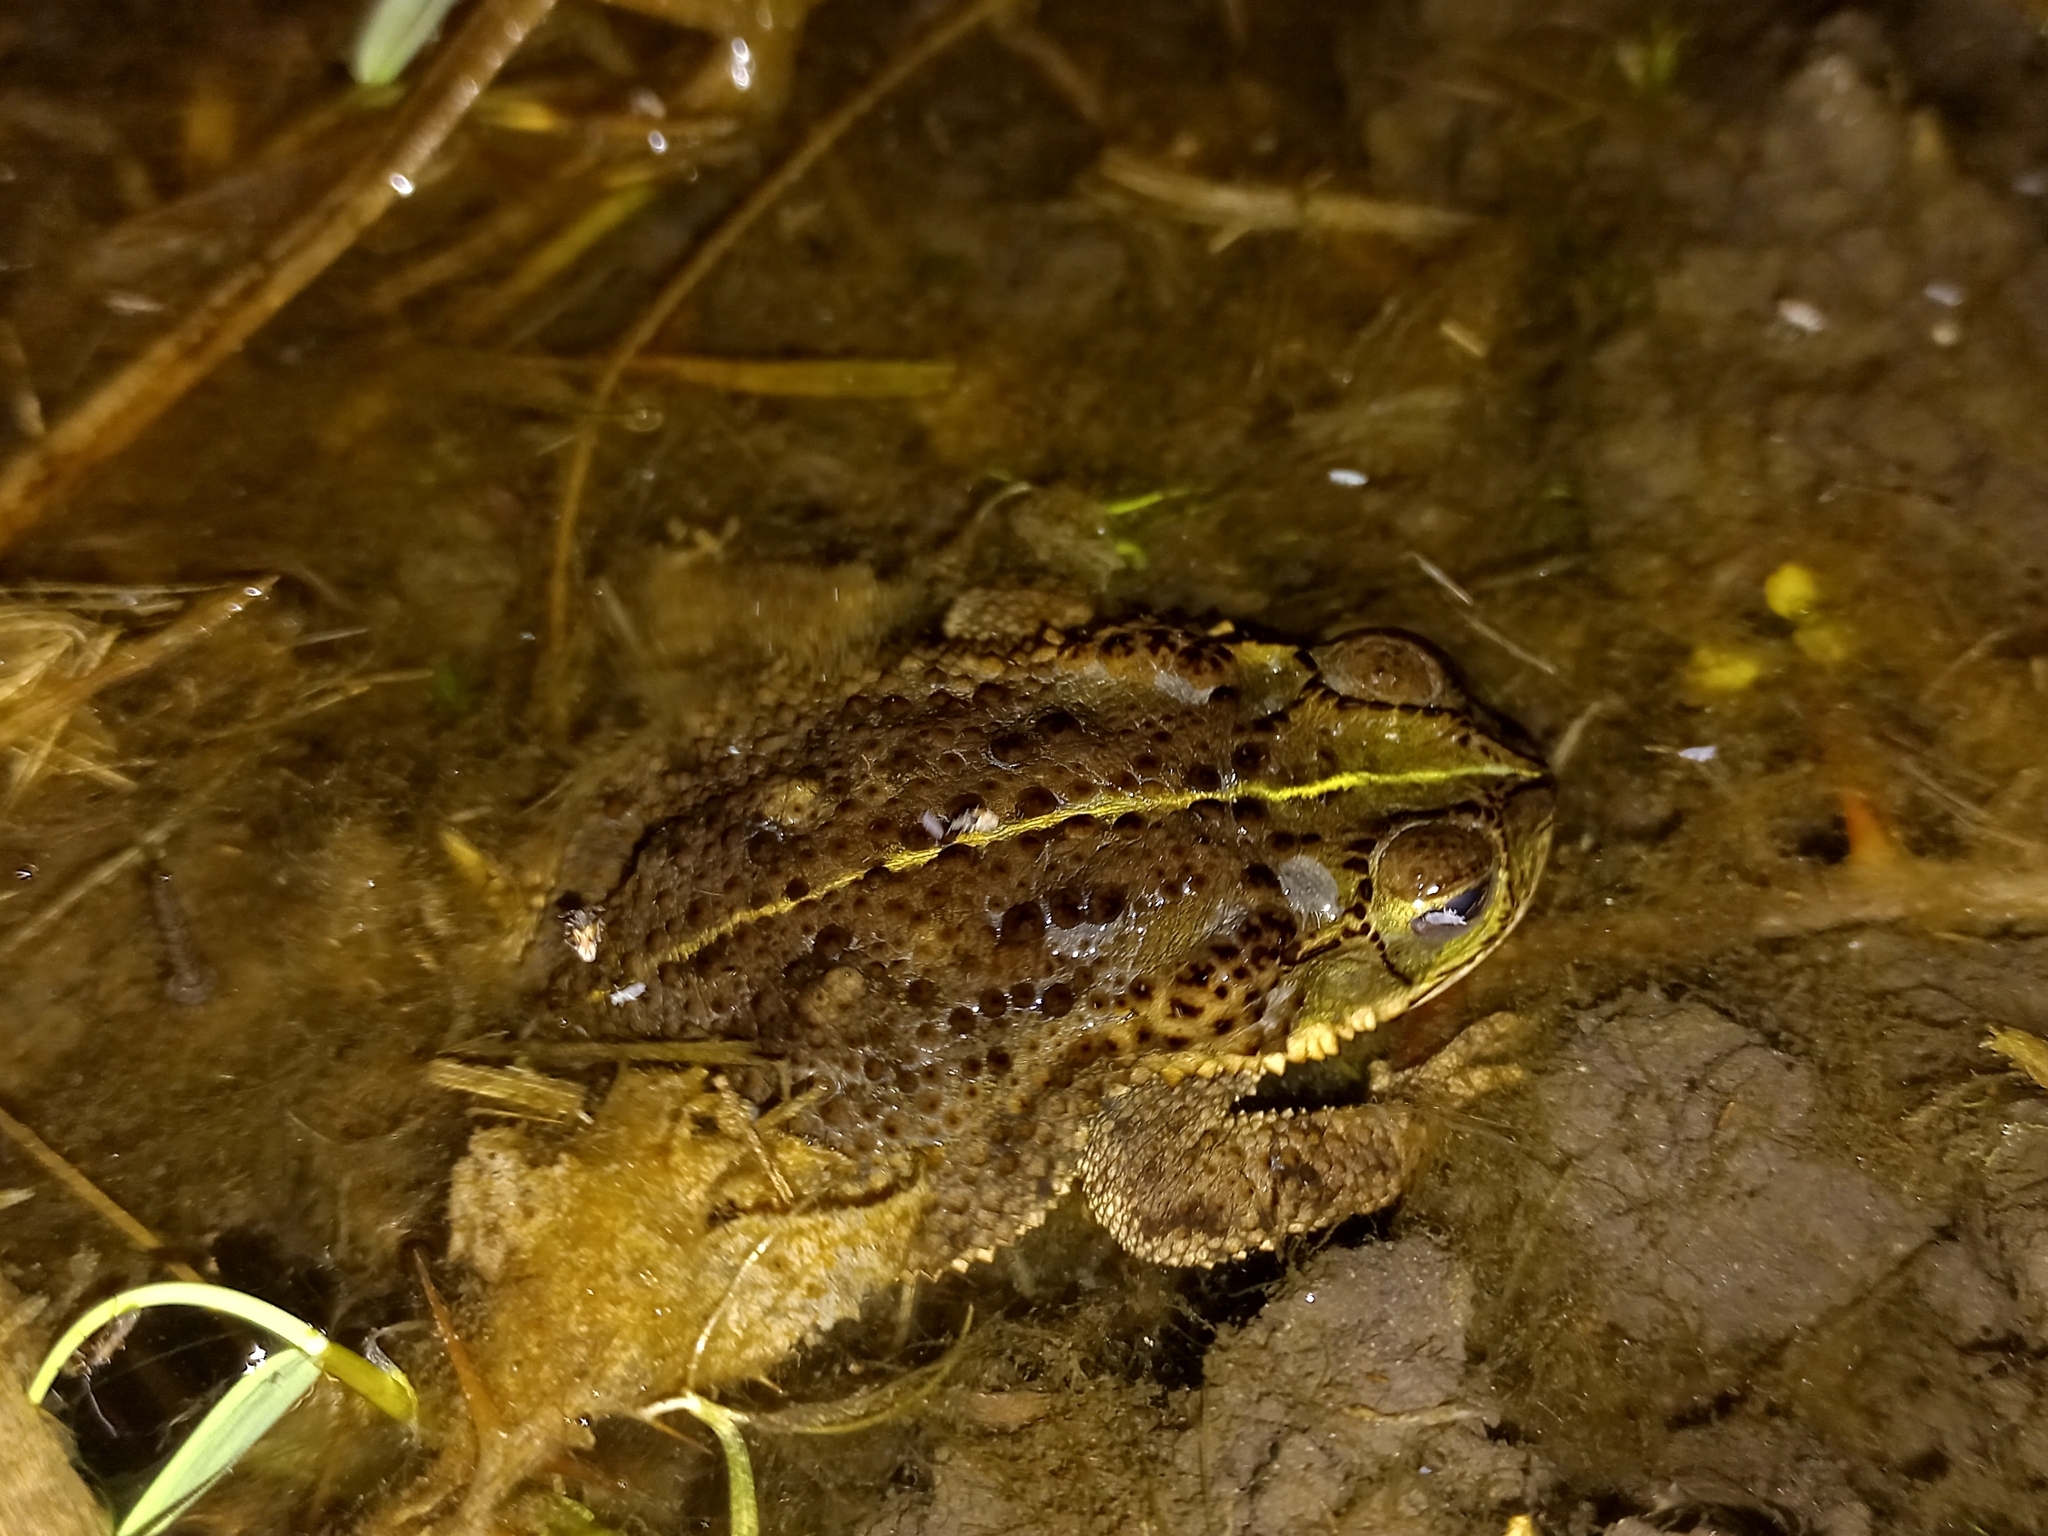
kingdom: Animalia
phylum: Chordata
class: Amphibia
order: Anura
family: Bufonidae
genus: Rhinella
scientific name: Rhinella dorbignyi
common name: D´orbigny’s toad
